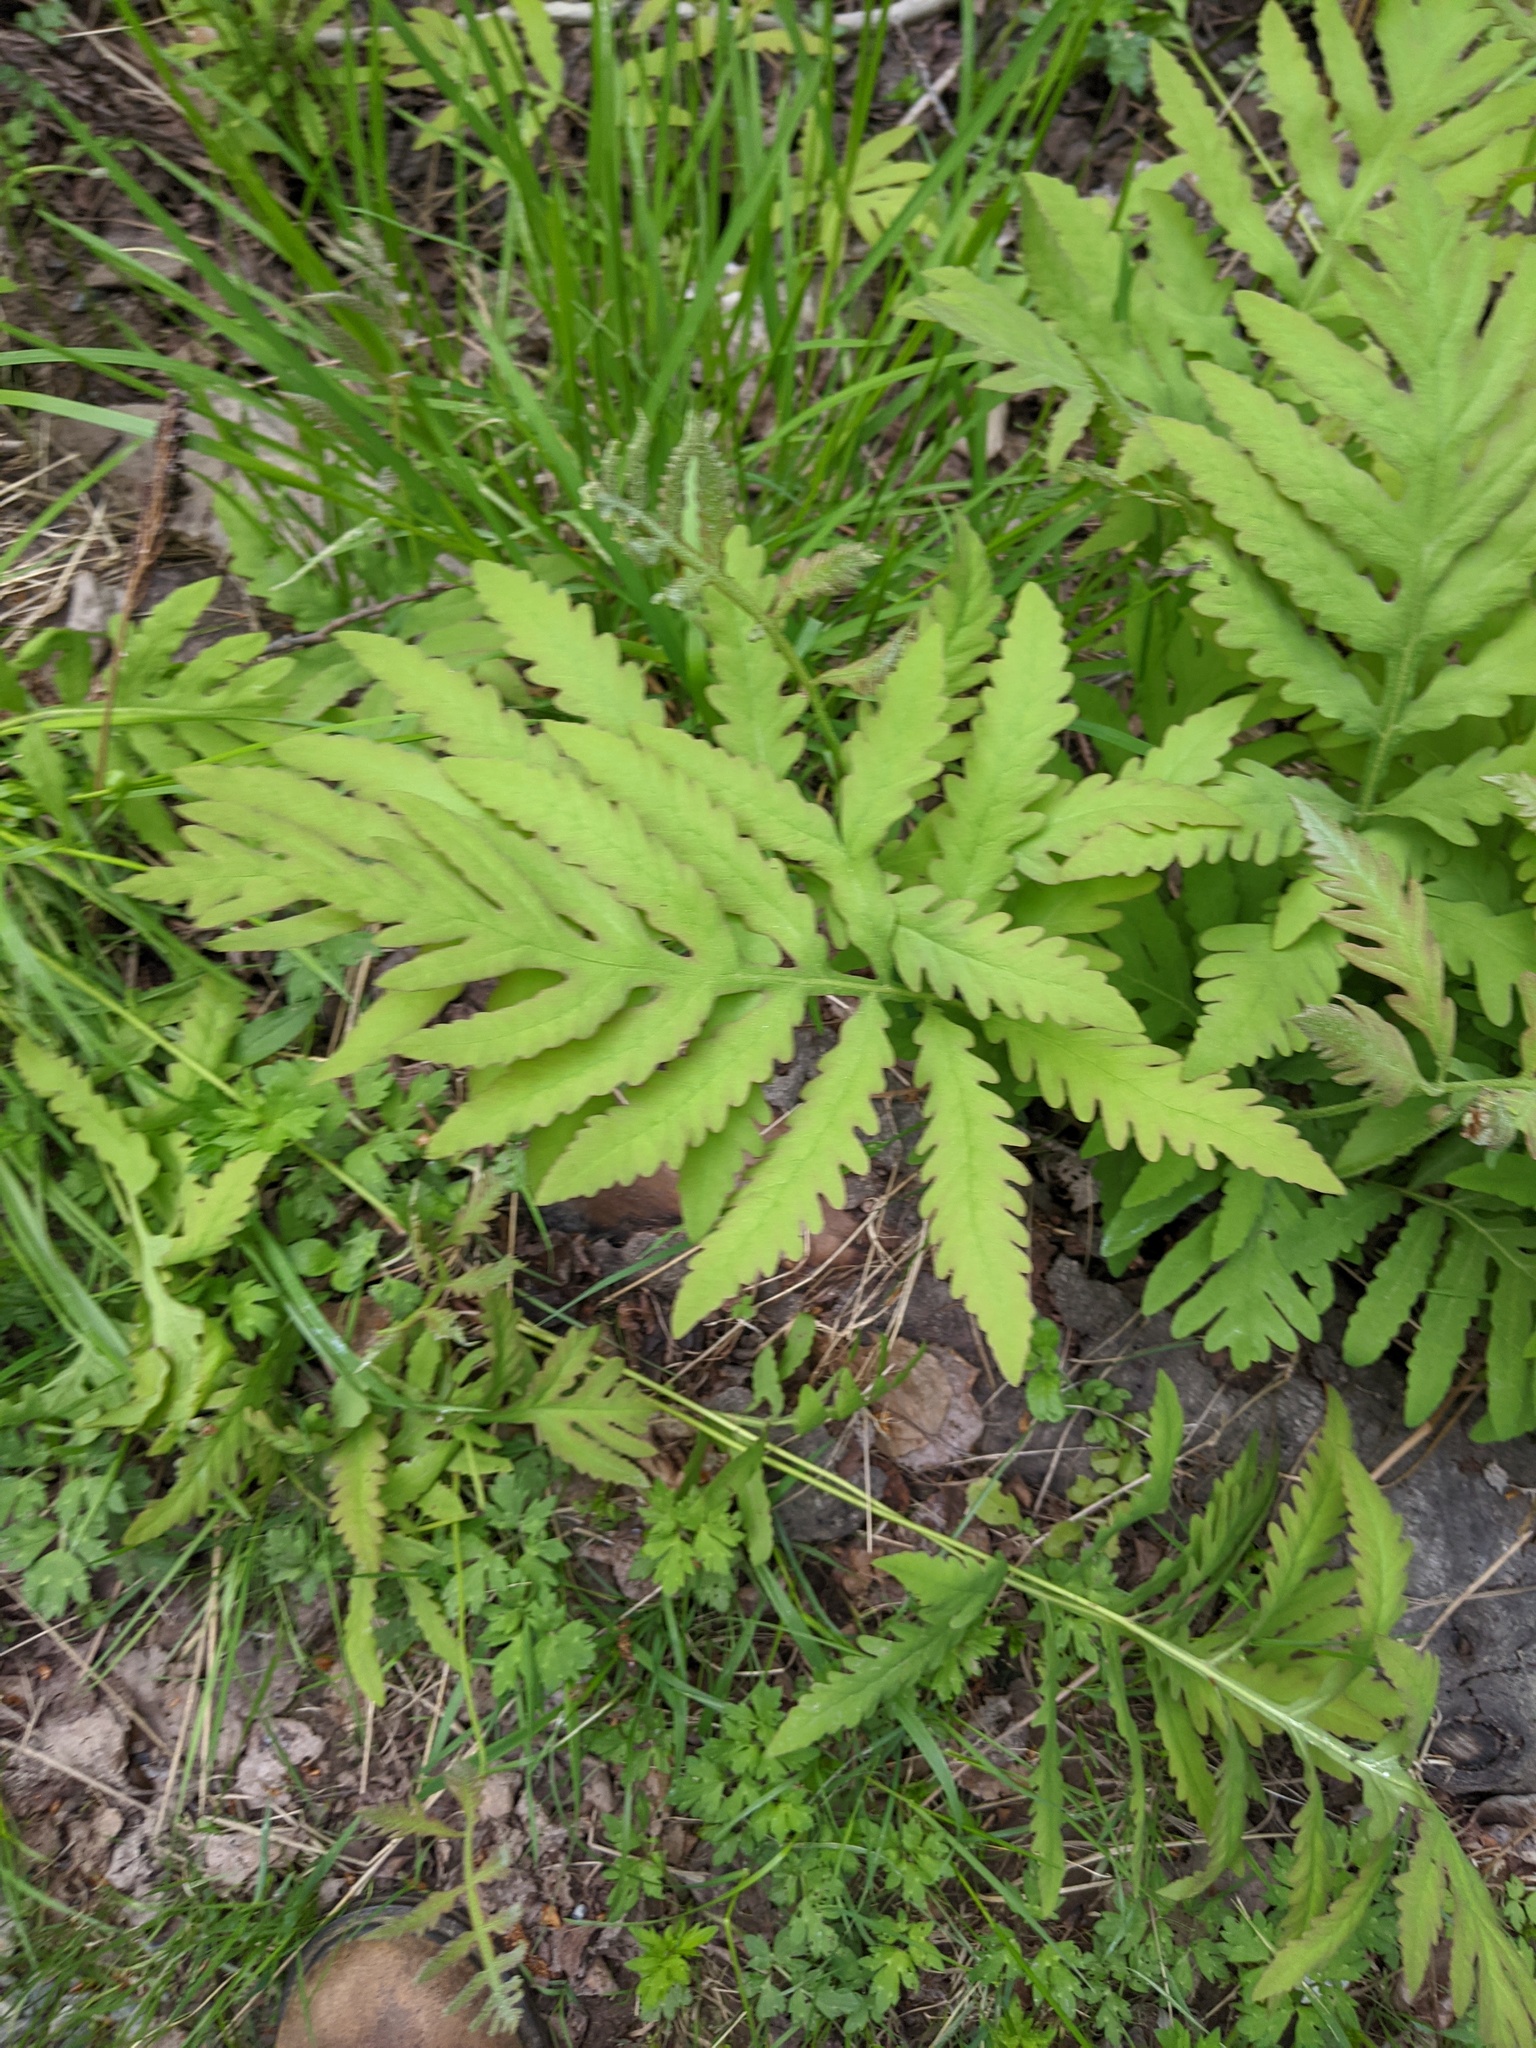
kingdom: Plantae
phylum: Tracheophyta
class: Polypodiopsida
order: Polypodiales
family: Onocleaceae
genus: Onoclea
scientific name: Onoclea sensibilis
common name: Sensitive fern
